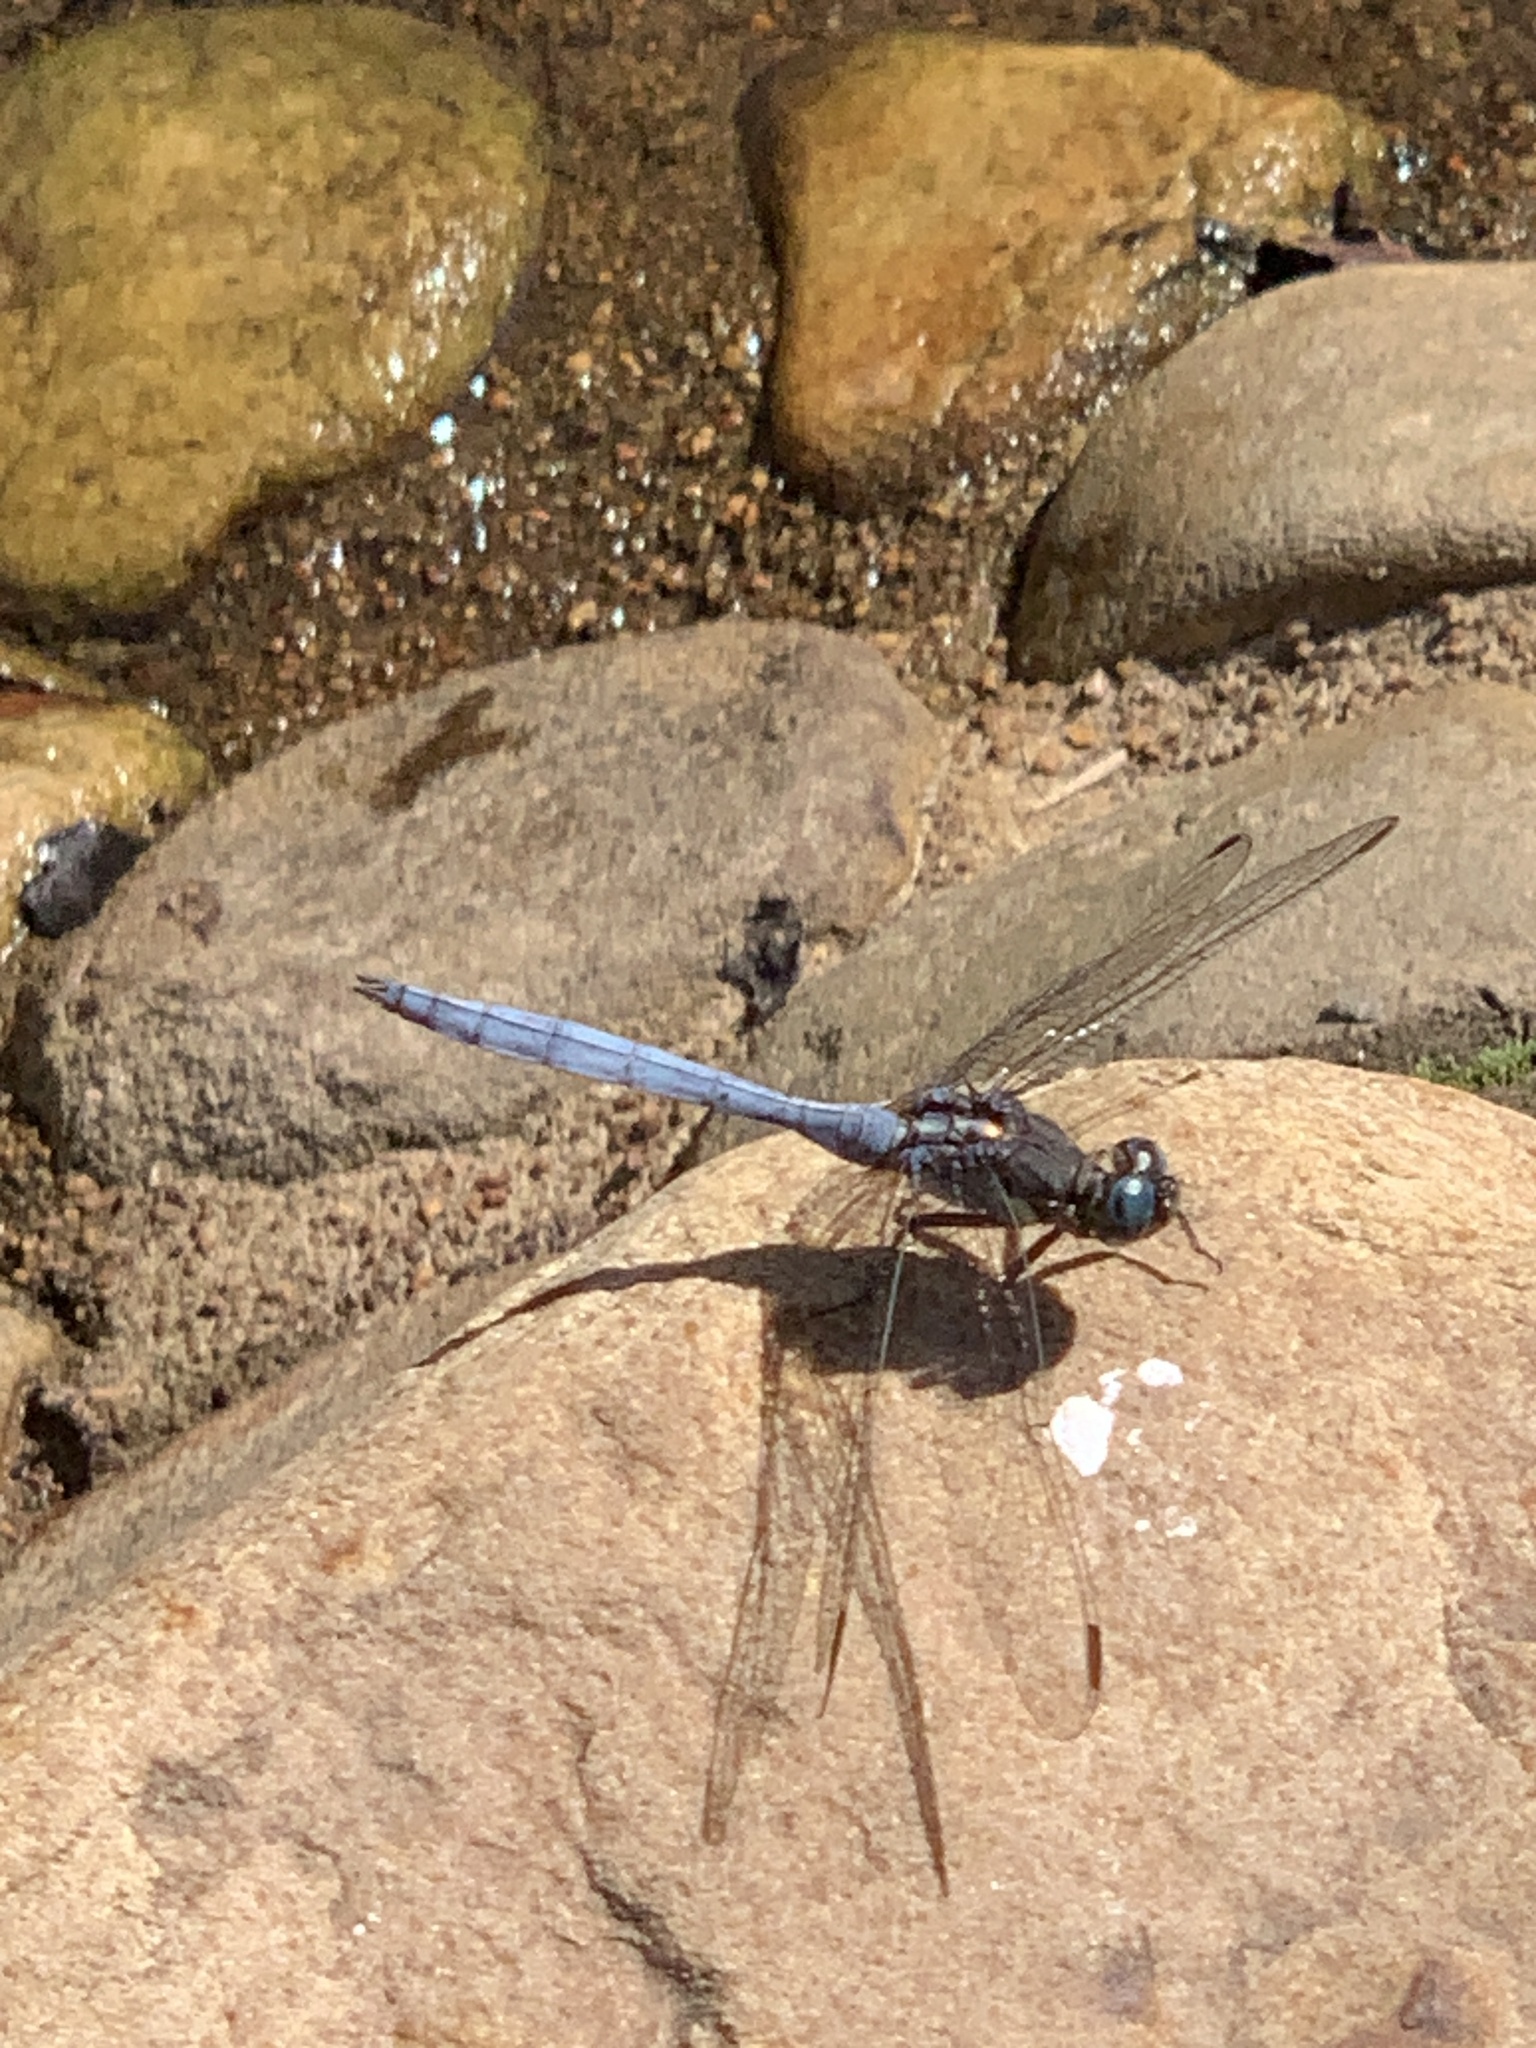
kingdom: Animalia
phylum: Arthropoda
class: Insecta
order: Odonata
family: Libellulidae
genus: Orthetrum
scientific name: Orthetrum julia
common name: Julia skimmer
